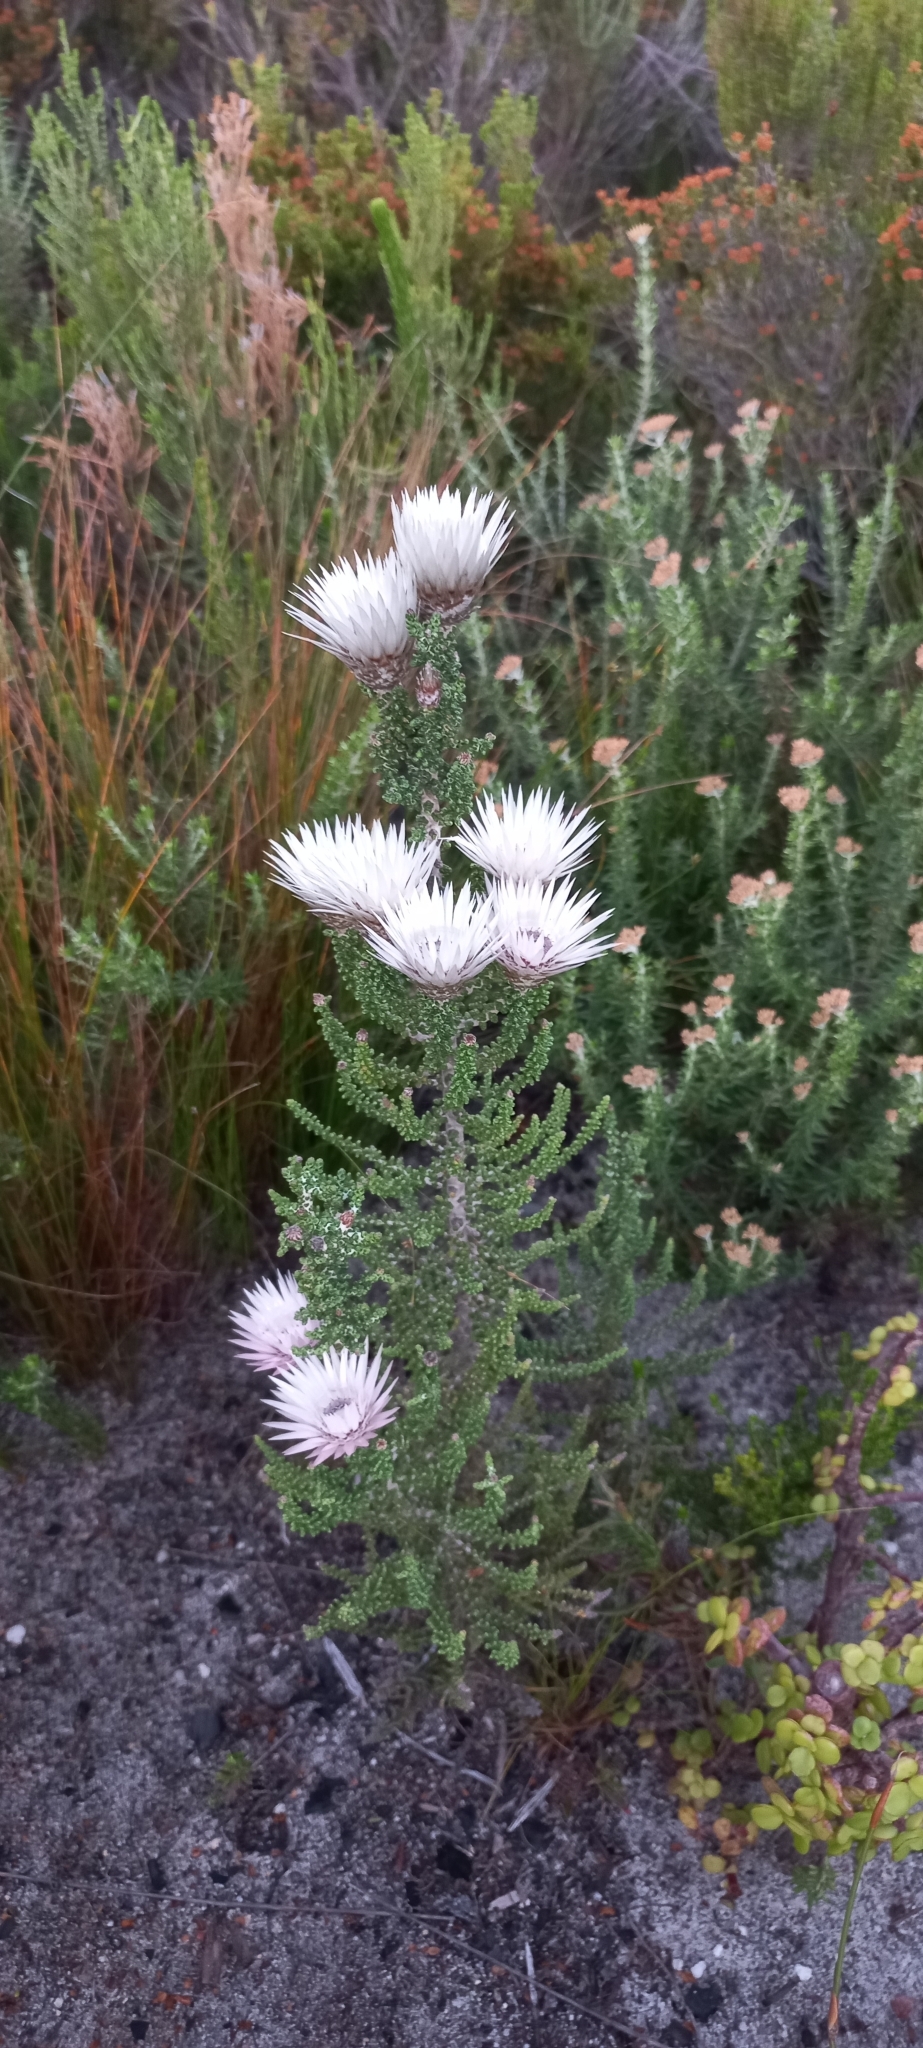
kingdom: Plantae
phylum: Tracheophyta
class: Magnoliopsida
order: Asterales
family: Asteraceae
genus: Phaenocoma
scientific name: Phaenocoma prolifera
